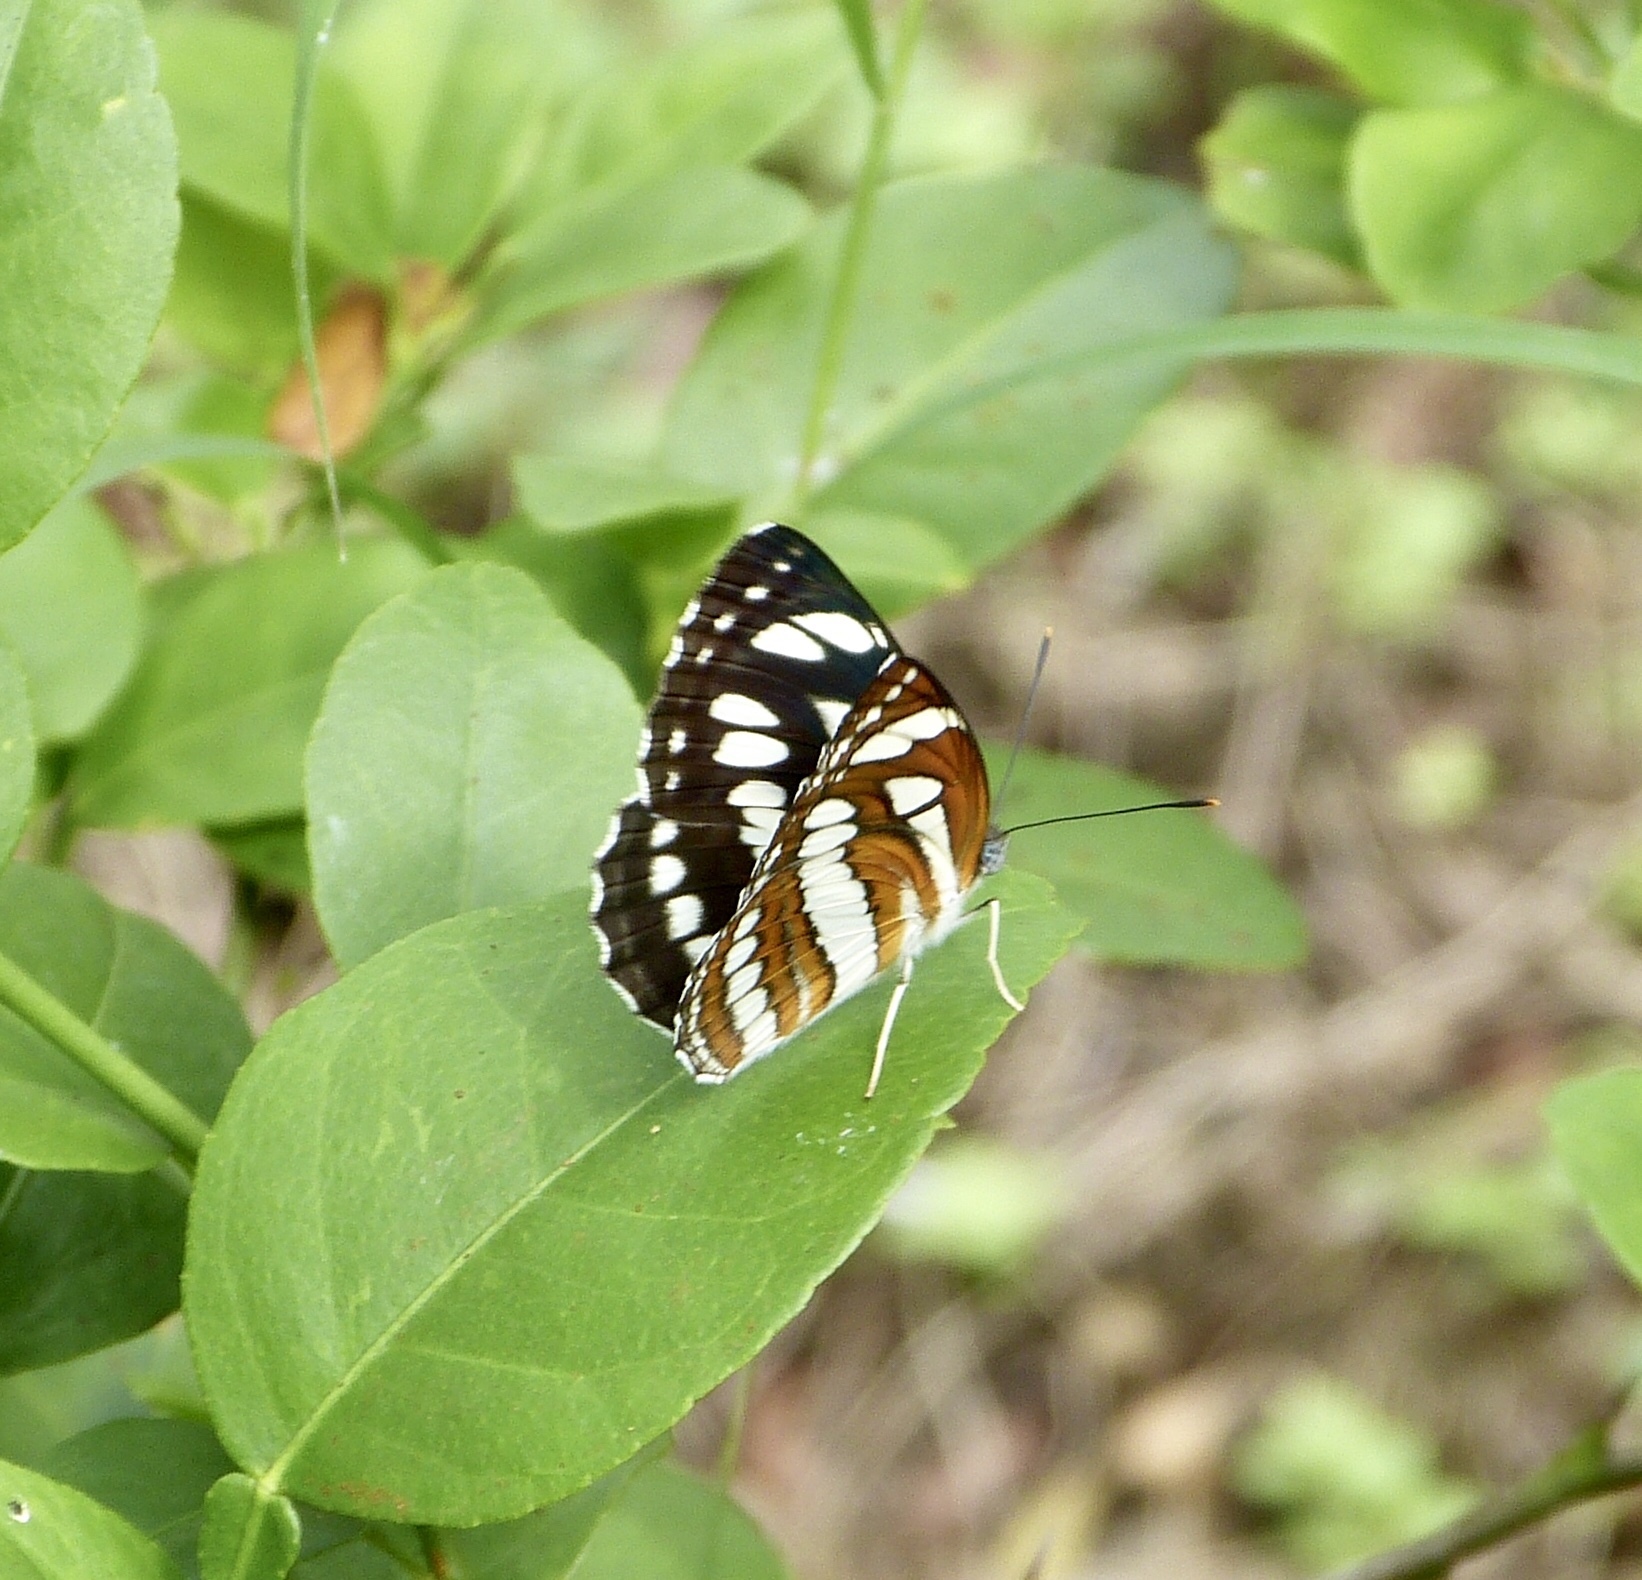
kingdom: Animalia
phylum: Arthropoda
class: Insecta
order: Lepidoptera
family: Nymphalidae
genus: Neptis
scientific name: Neptis hylas
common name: Common sailer
